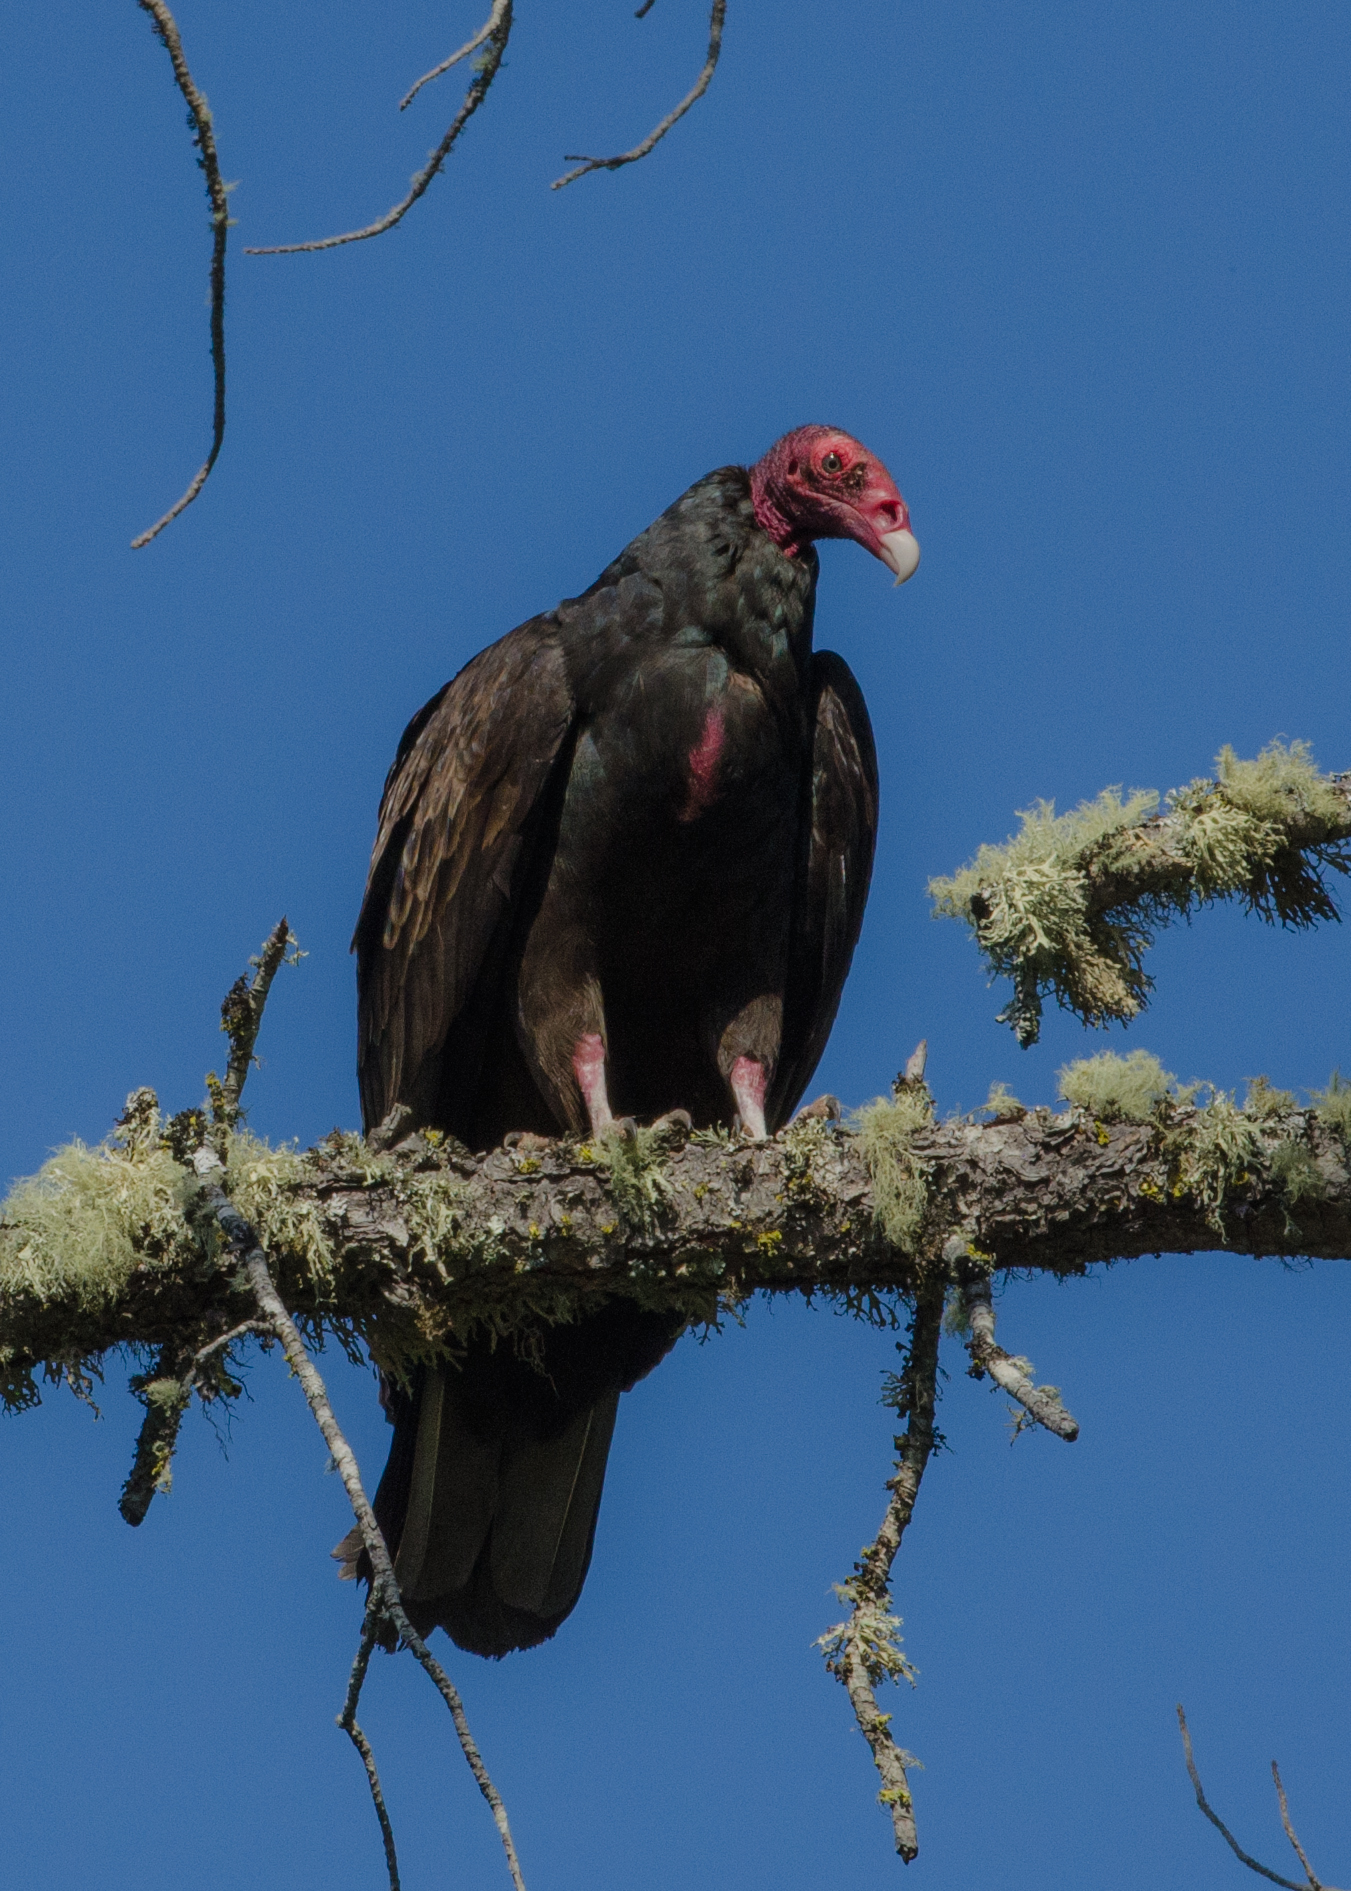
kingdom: Animalia
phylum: Chordata
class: Aves
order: Accipitriformes
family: Cathartidae
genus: Cathartes
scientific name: Cathartes aura
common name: Turkey vulture
